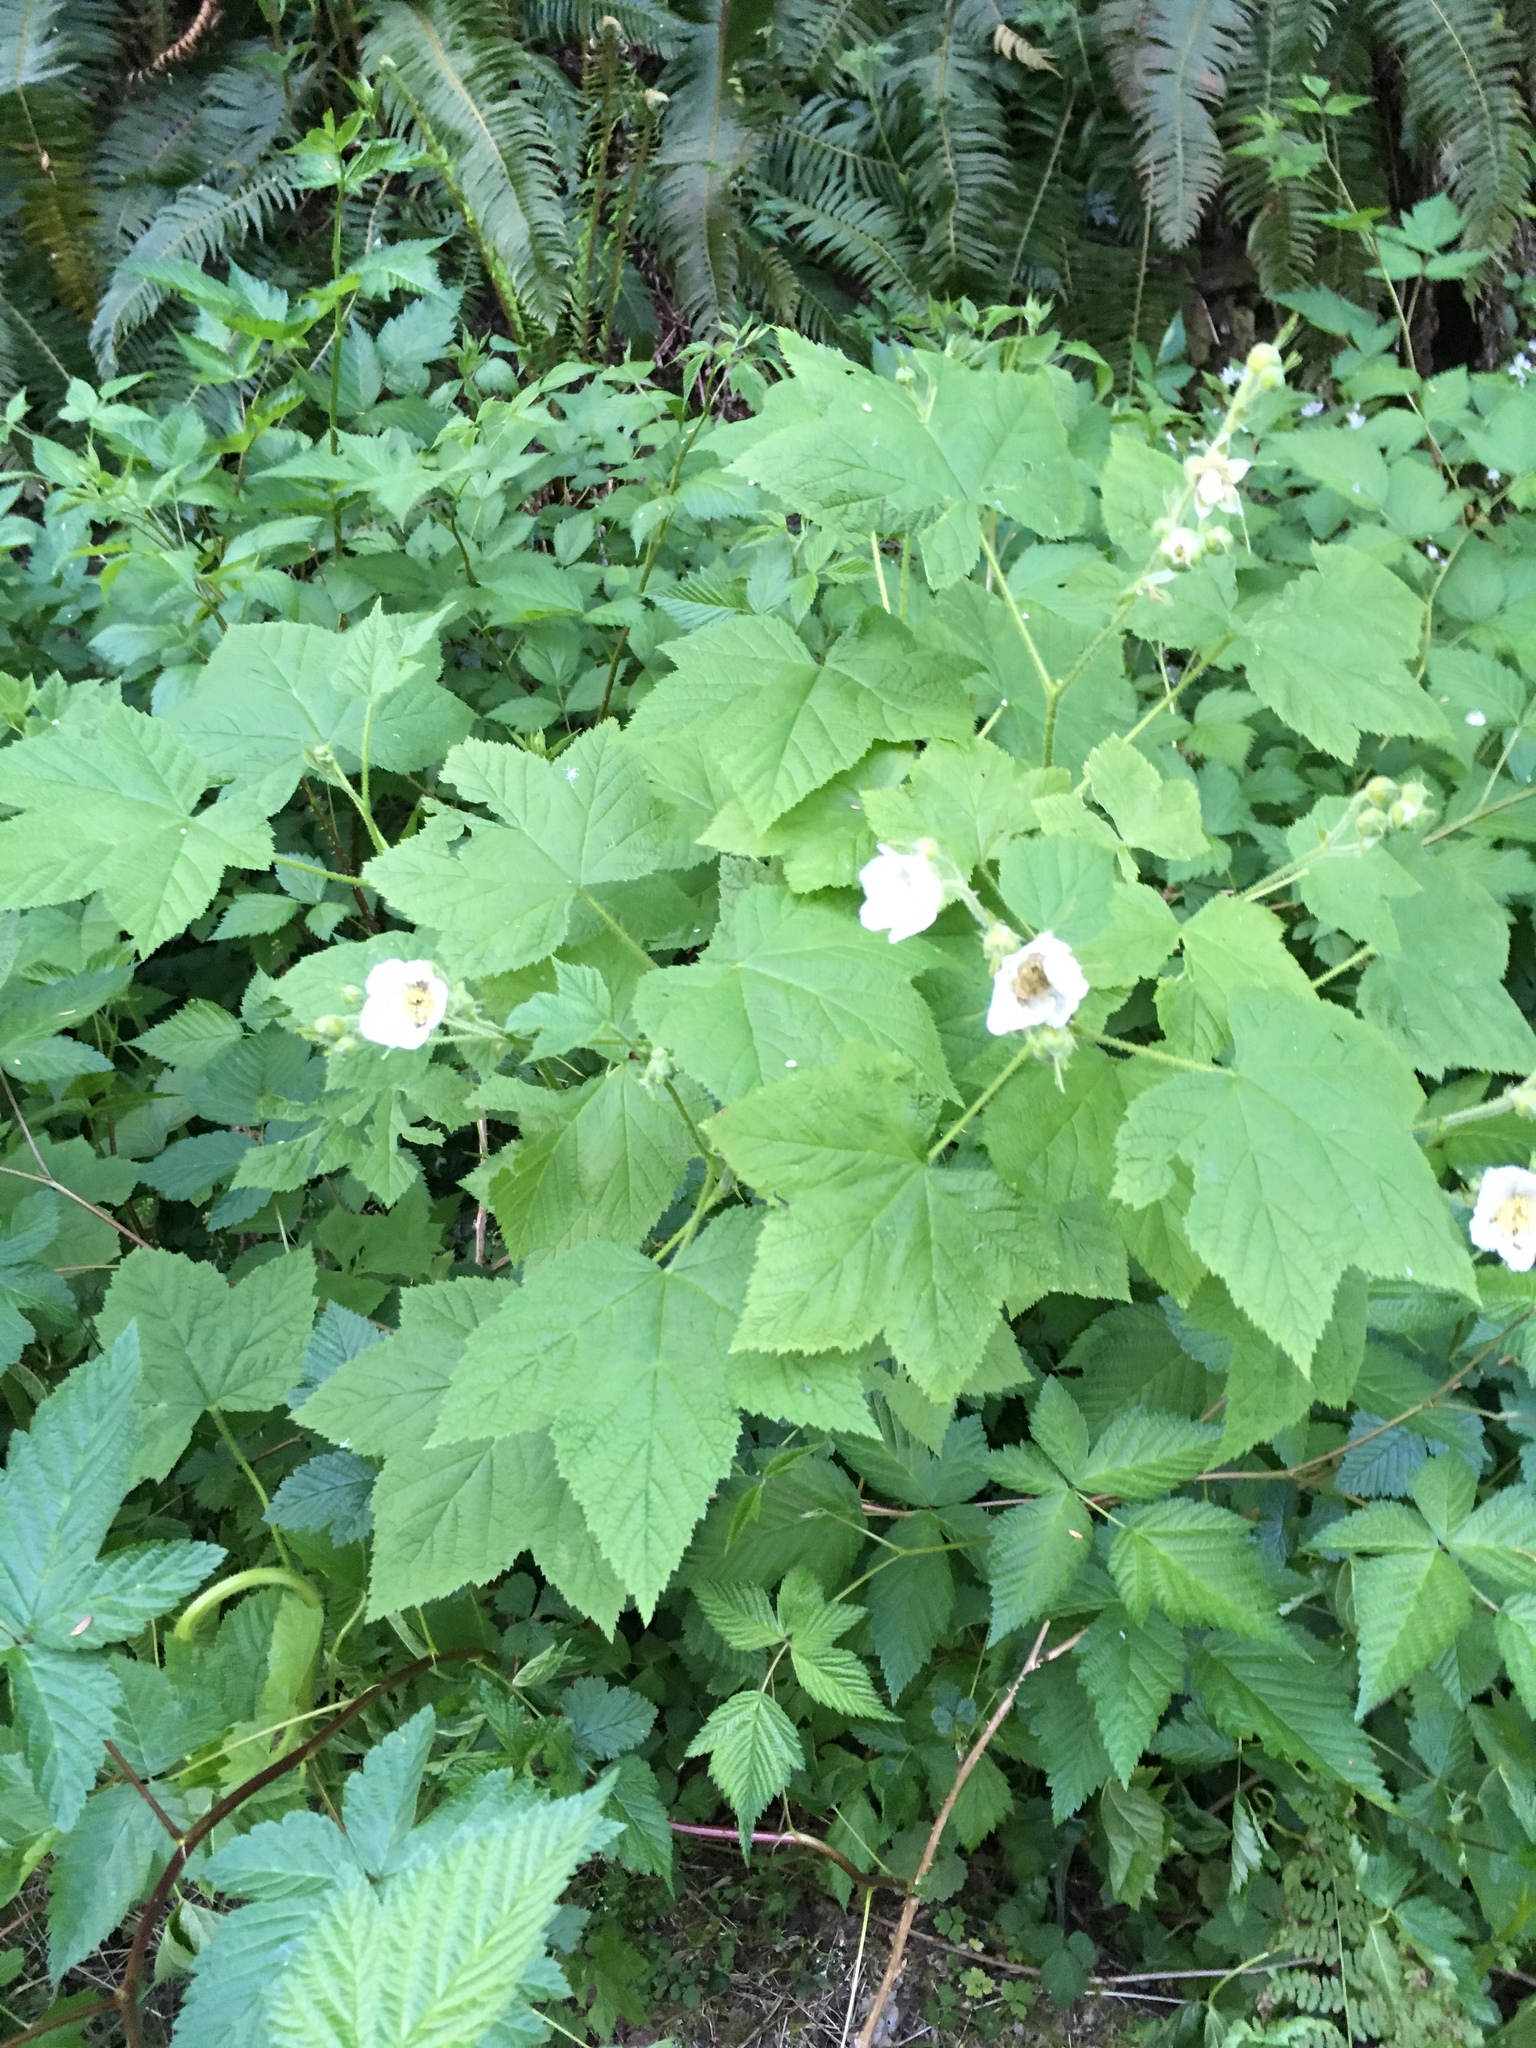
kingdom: Plantae
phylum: Tracheophyta
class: Magnoliopsida
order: Rosales
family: Rosaceae
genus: Rubus
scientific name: Rubus parviflorus
